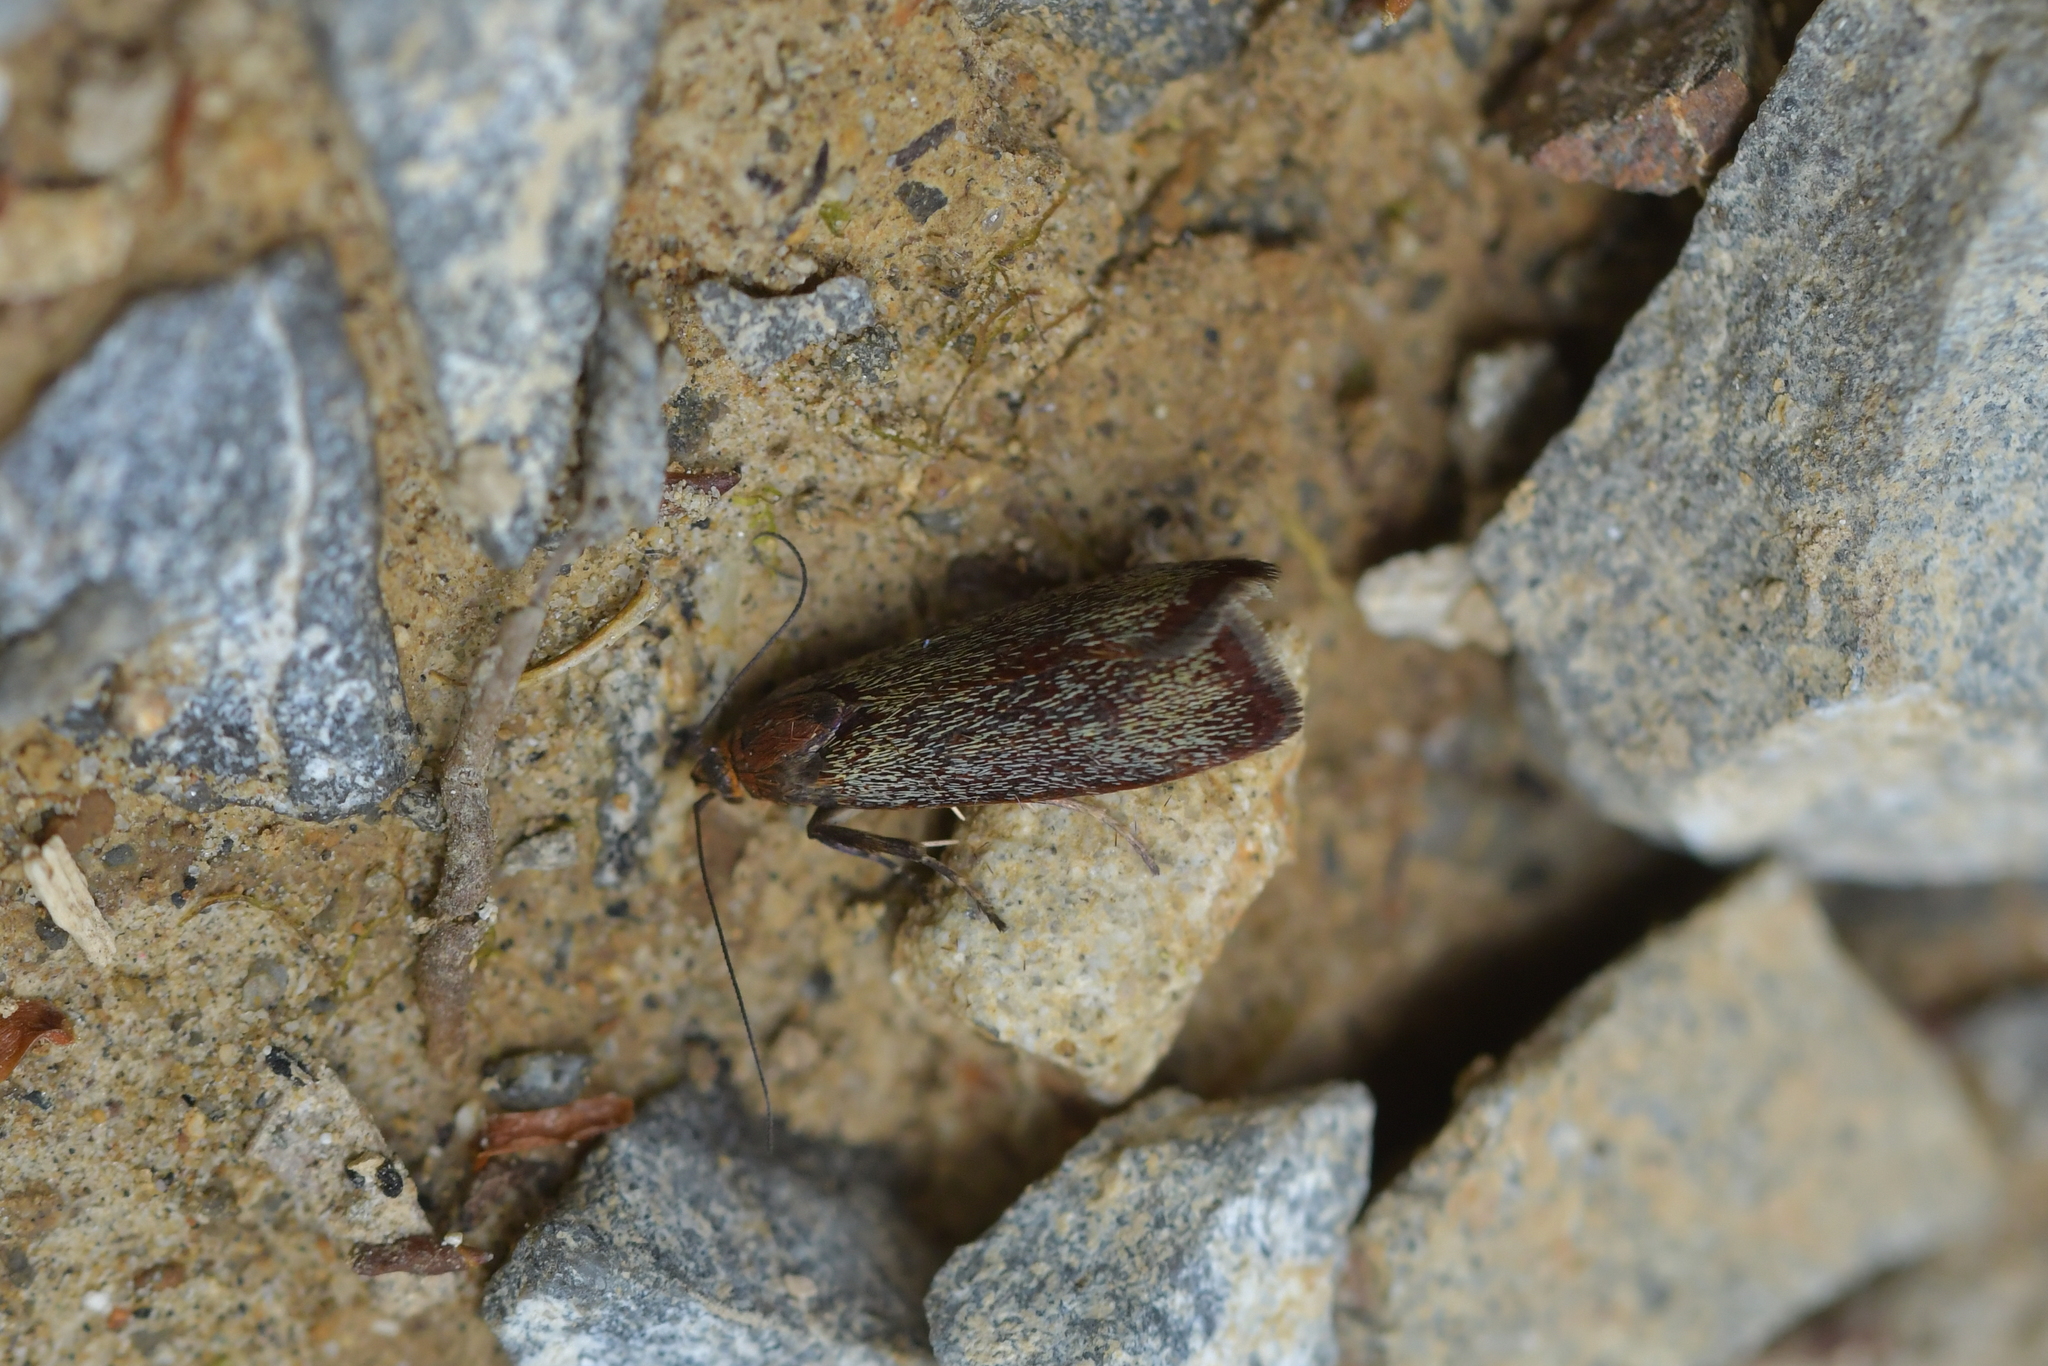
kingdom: Animalia
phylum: Arthropoda
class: Insecta
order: Lepidoptera
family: Oecophoridae
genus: Hierodoris
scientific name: Hierodoris callispora
